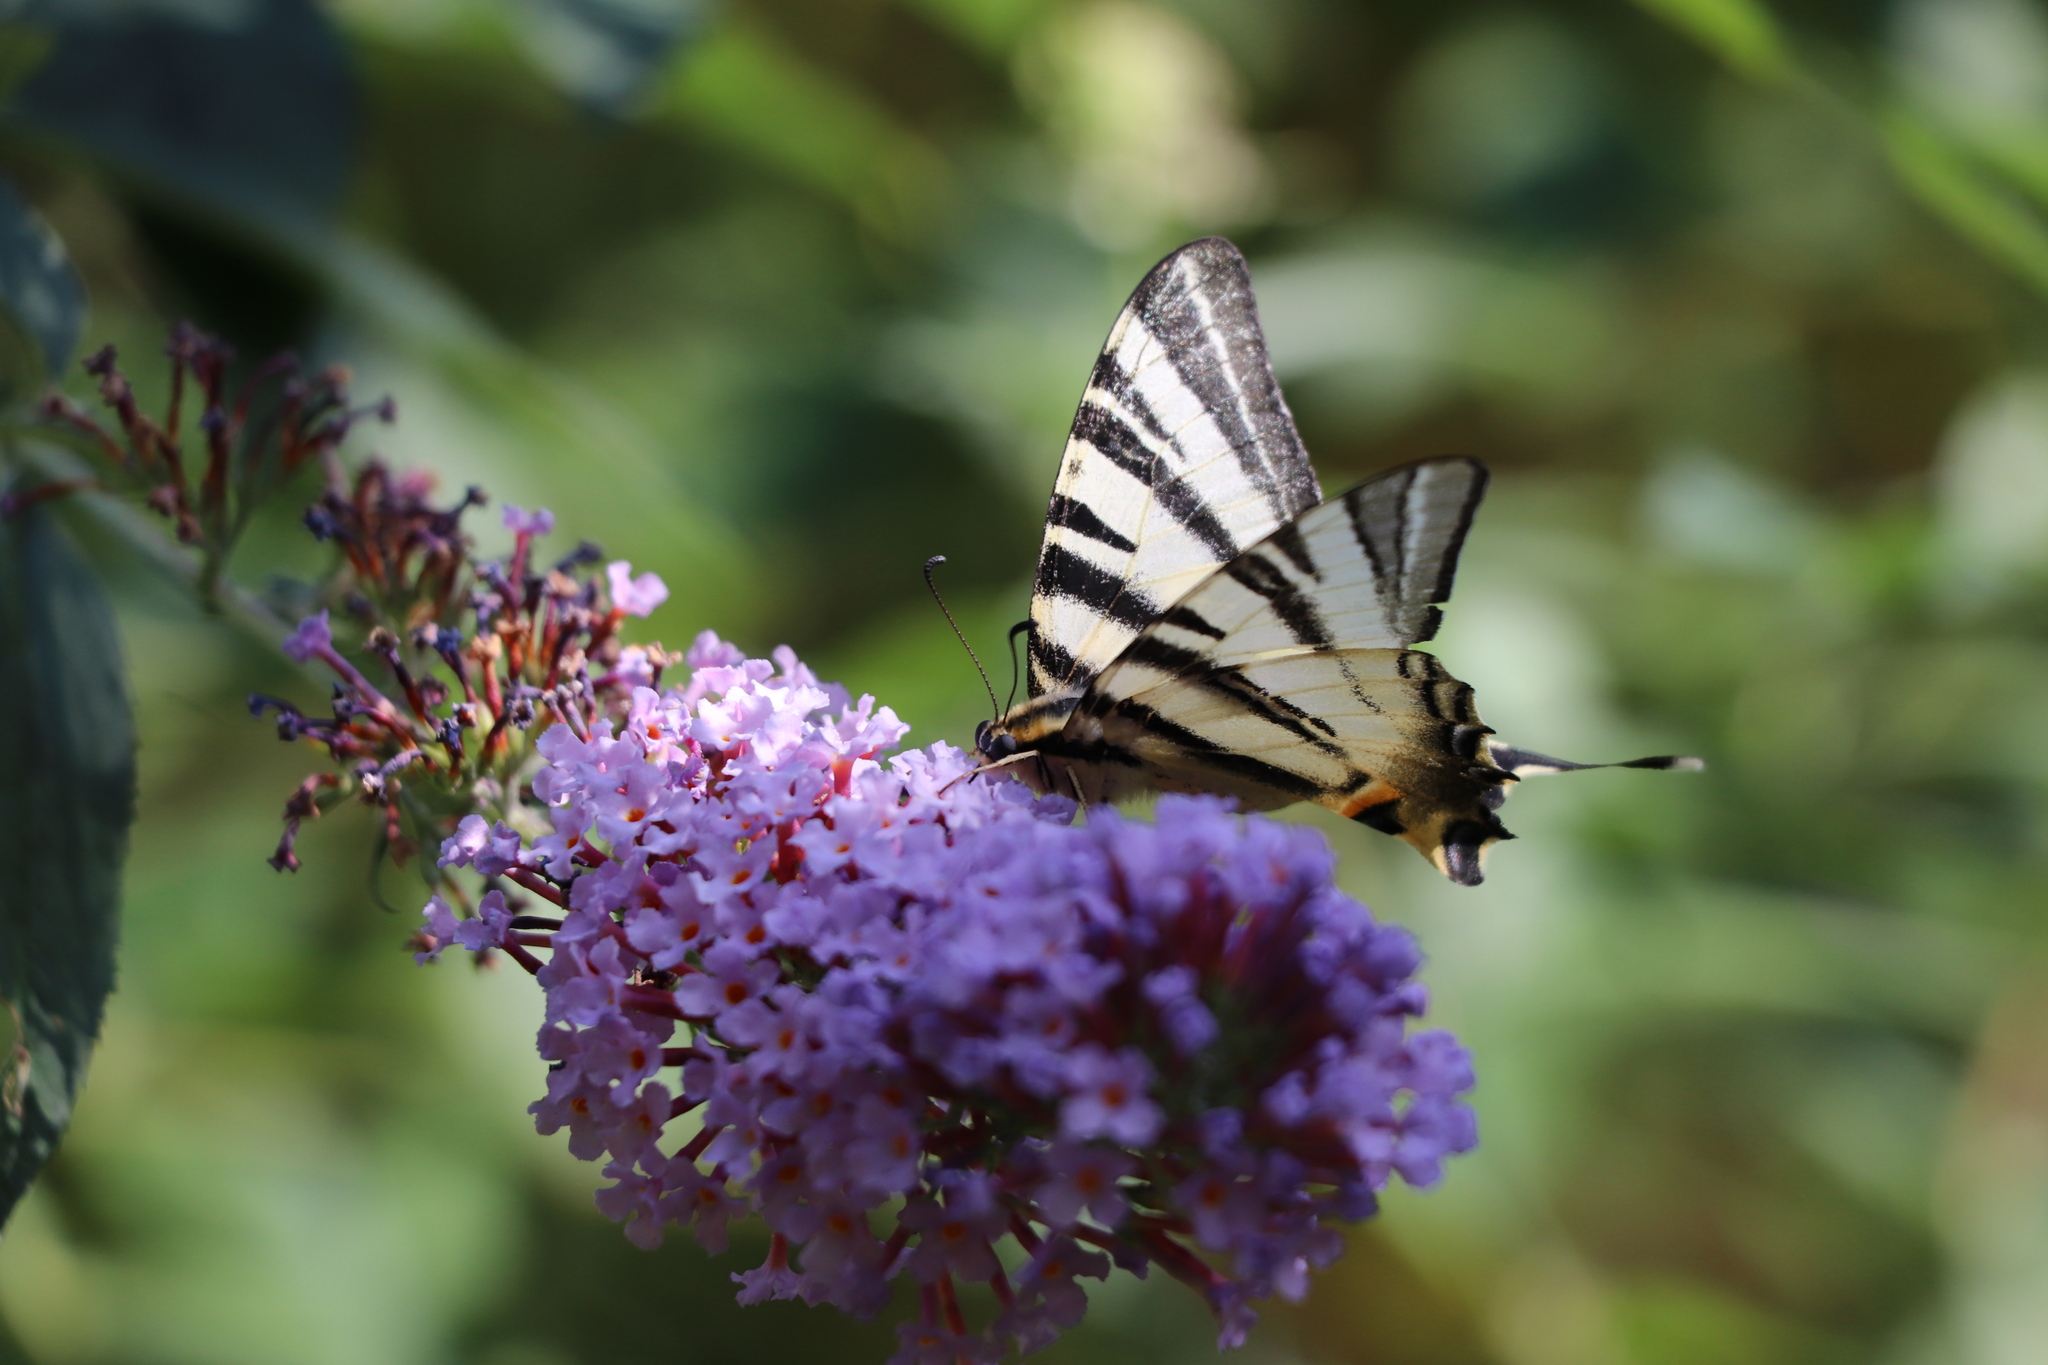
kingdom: Animalia
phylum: Arthropoda
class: Insecta
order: Lepidoptera
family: Papilionidae
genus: Iphiclides
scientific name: Iphiclides podalirius
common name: Scarce swallowtail
